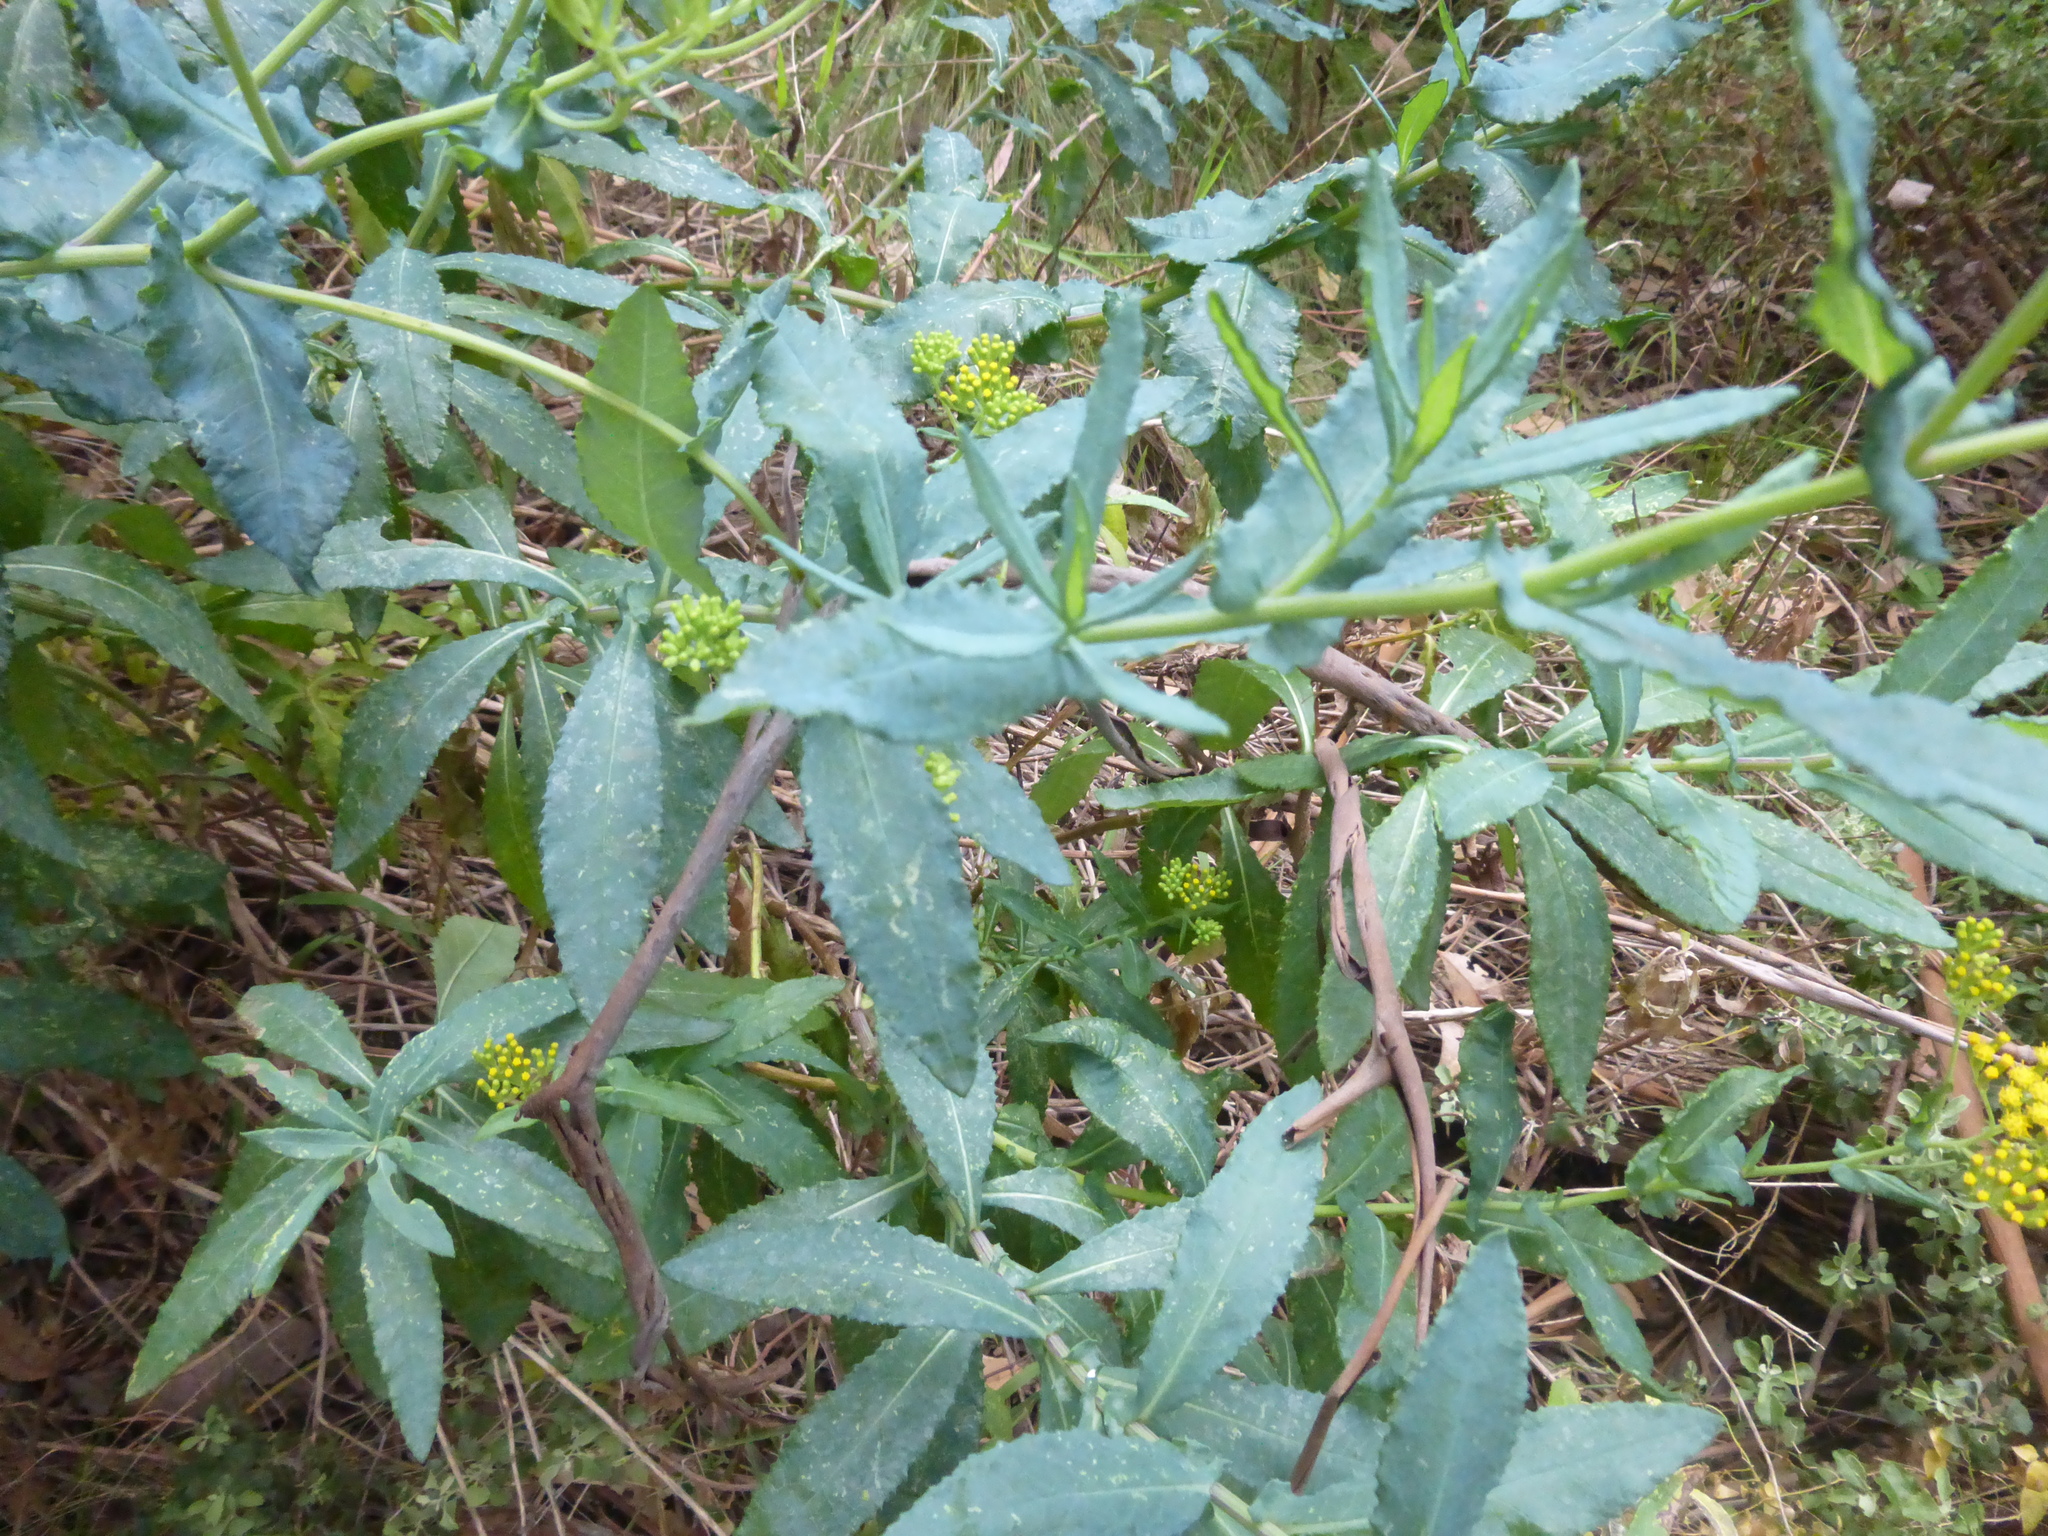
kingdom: Plantae
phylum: Tracheophyta
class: Magnoliopsida
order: Asterales
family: Asteraceae
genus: Senecio
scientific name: Senecio odoratus
